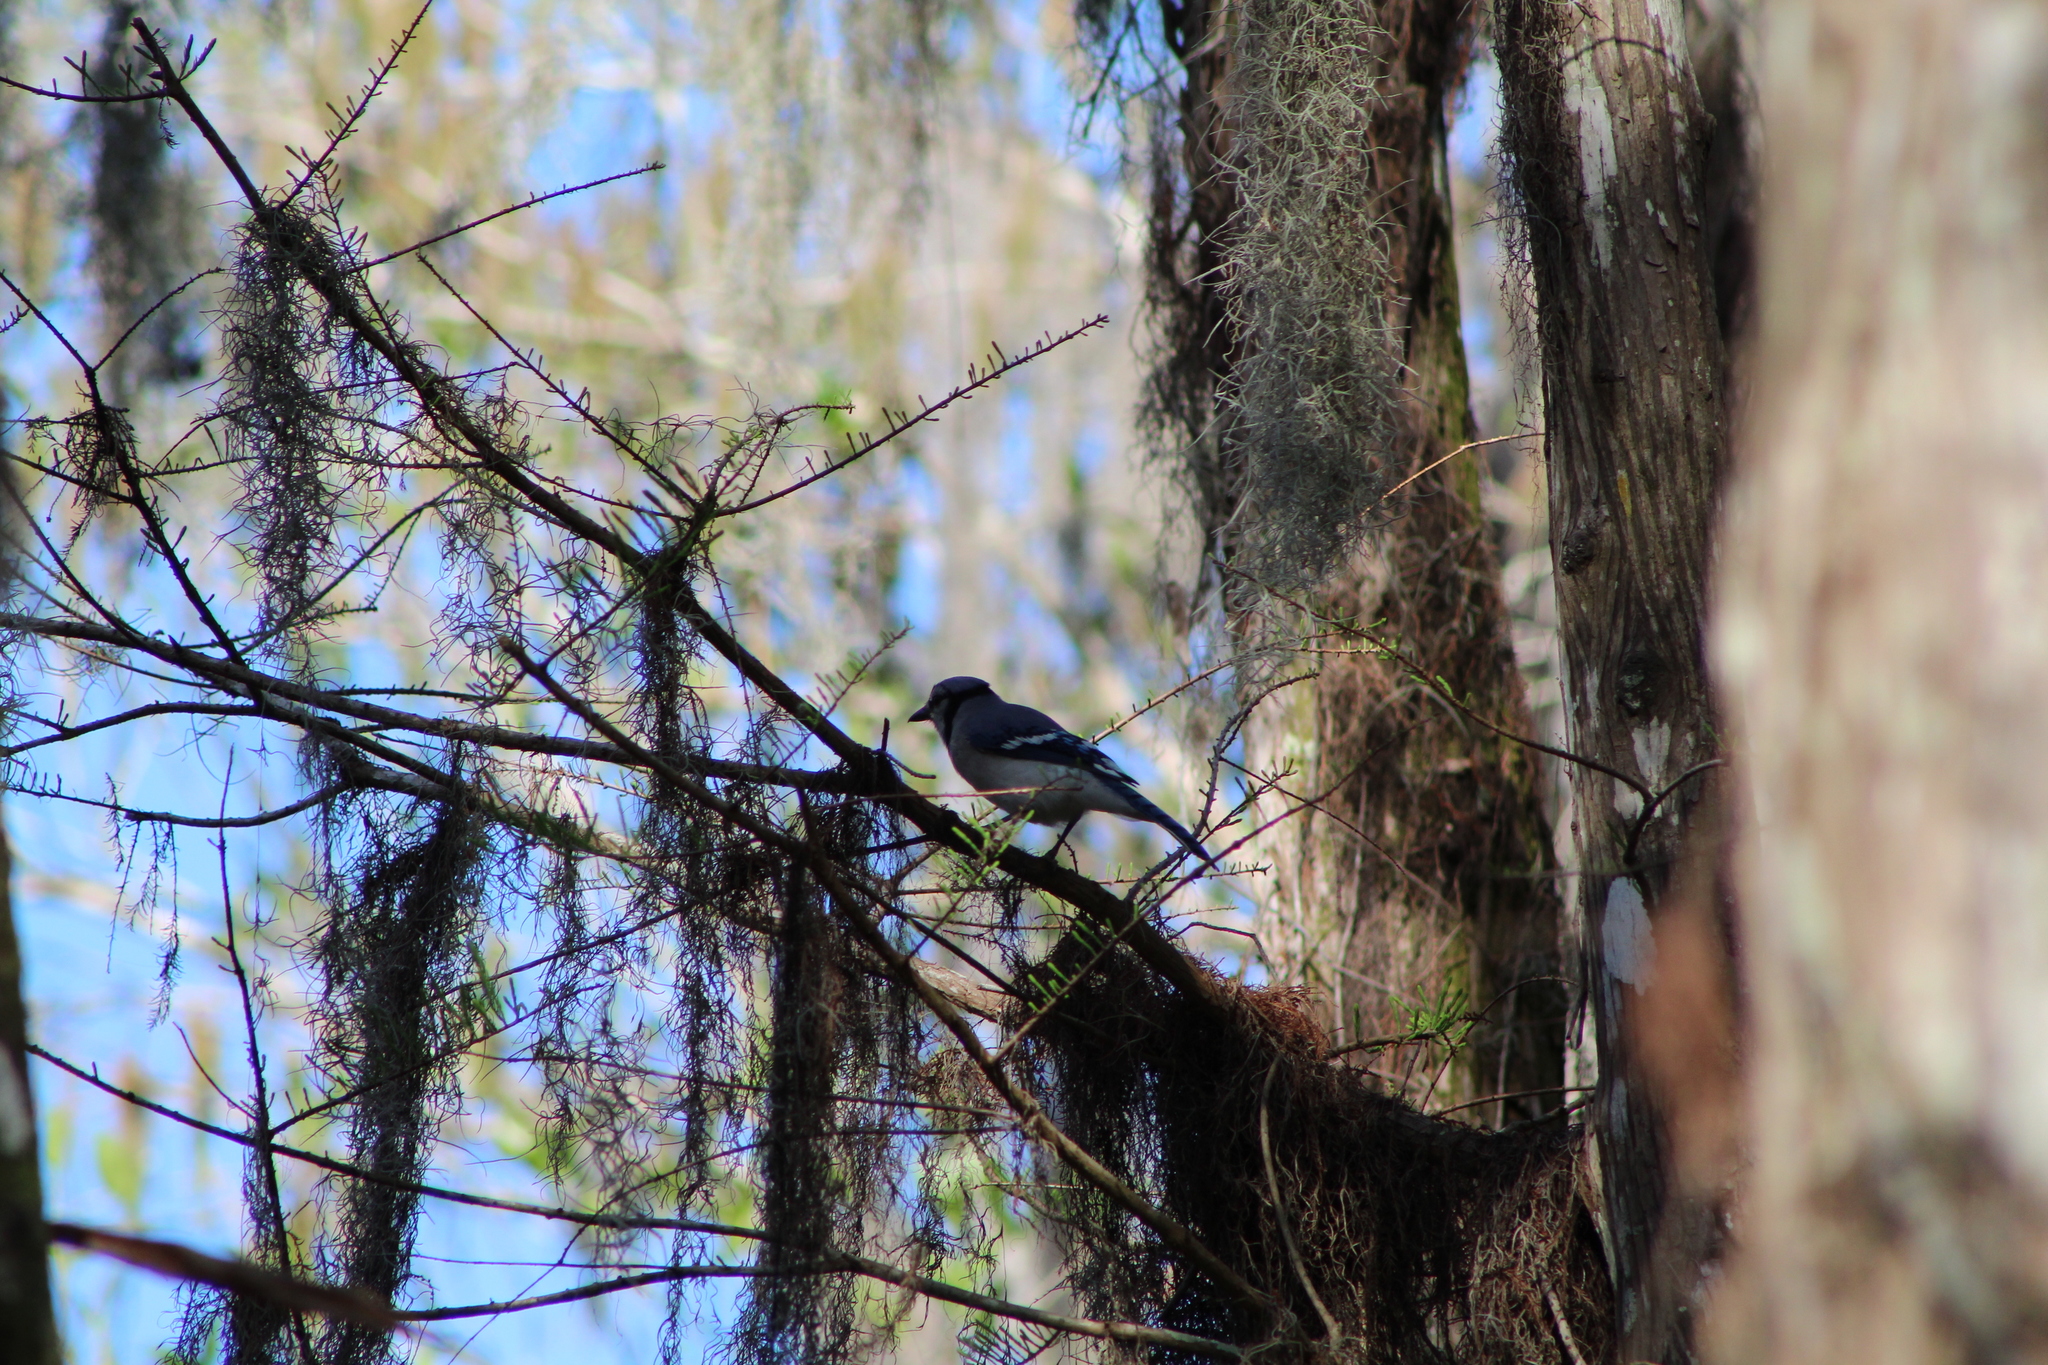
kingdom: Animalia
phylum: Chordata
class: Aves
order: Passeriformes
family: Corvidae
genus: Cyanocitta
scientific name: Cyanocitta cristata
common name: Blue jay
